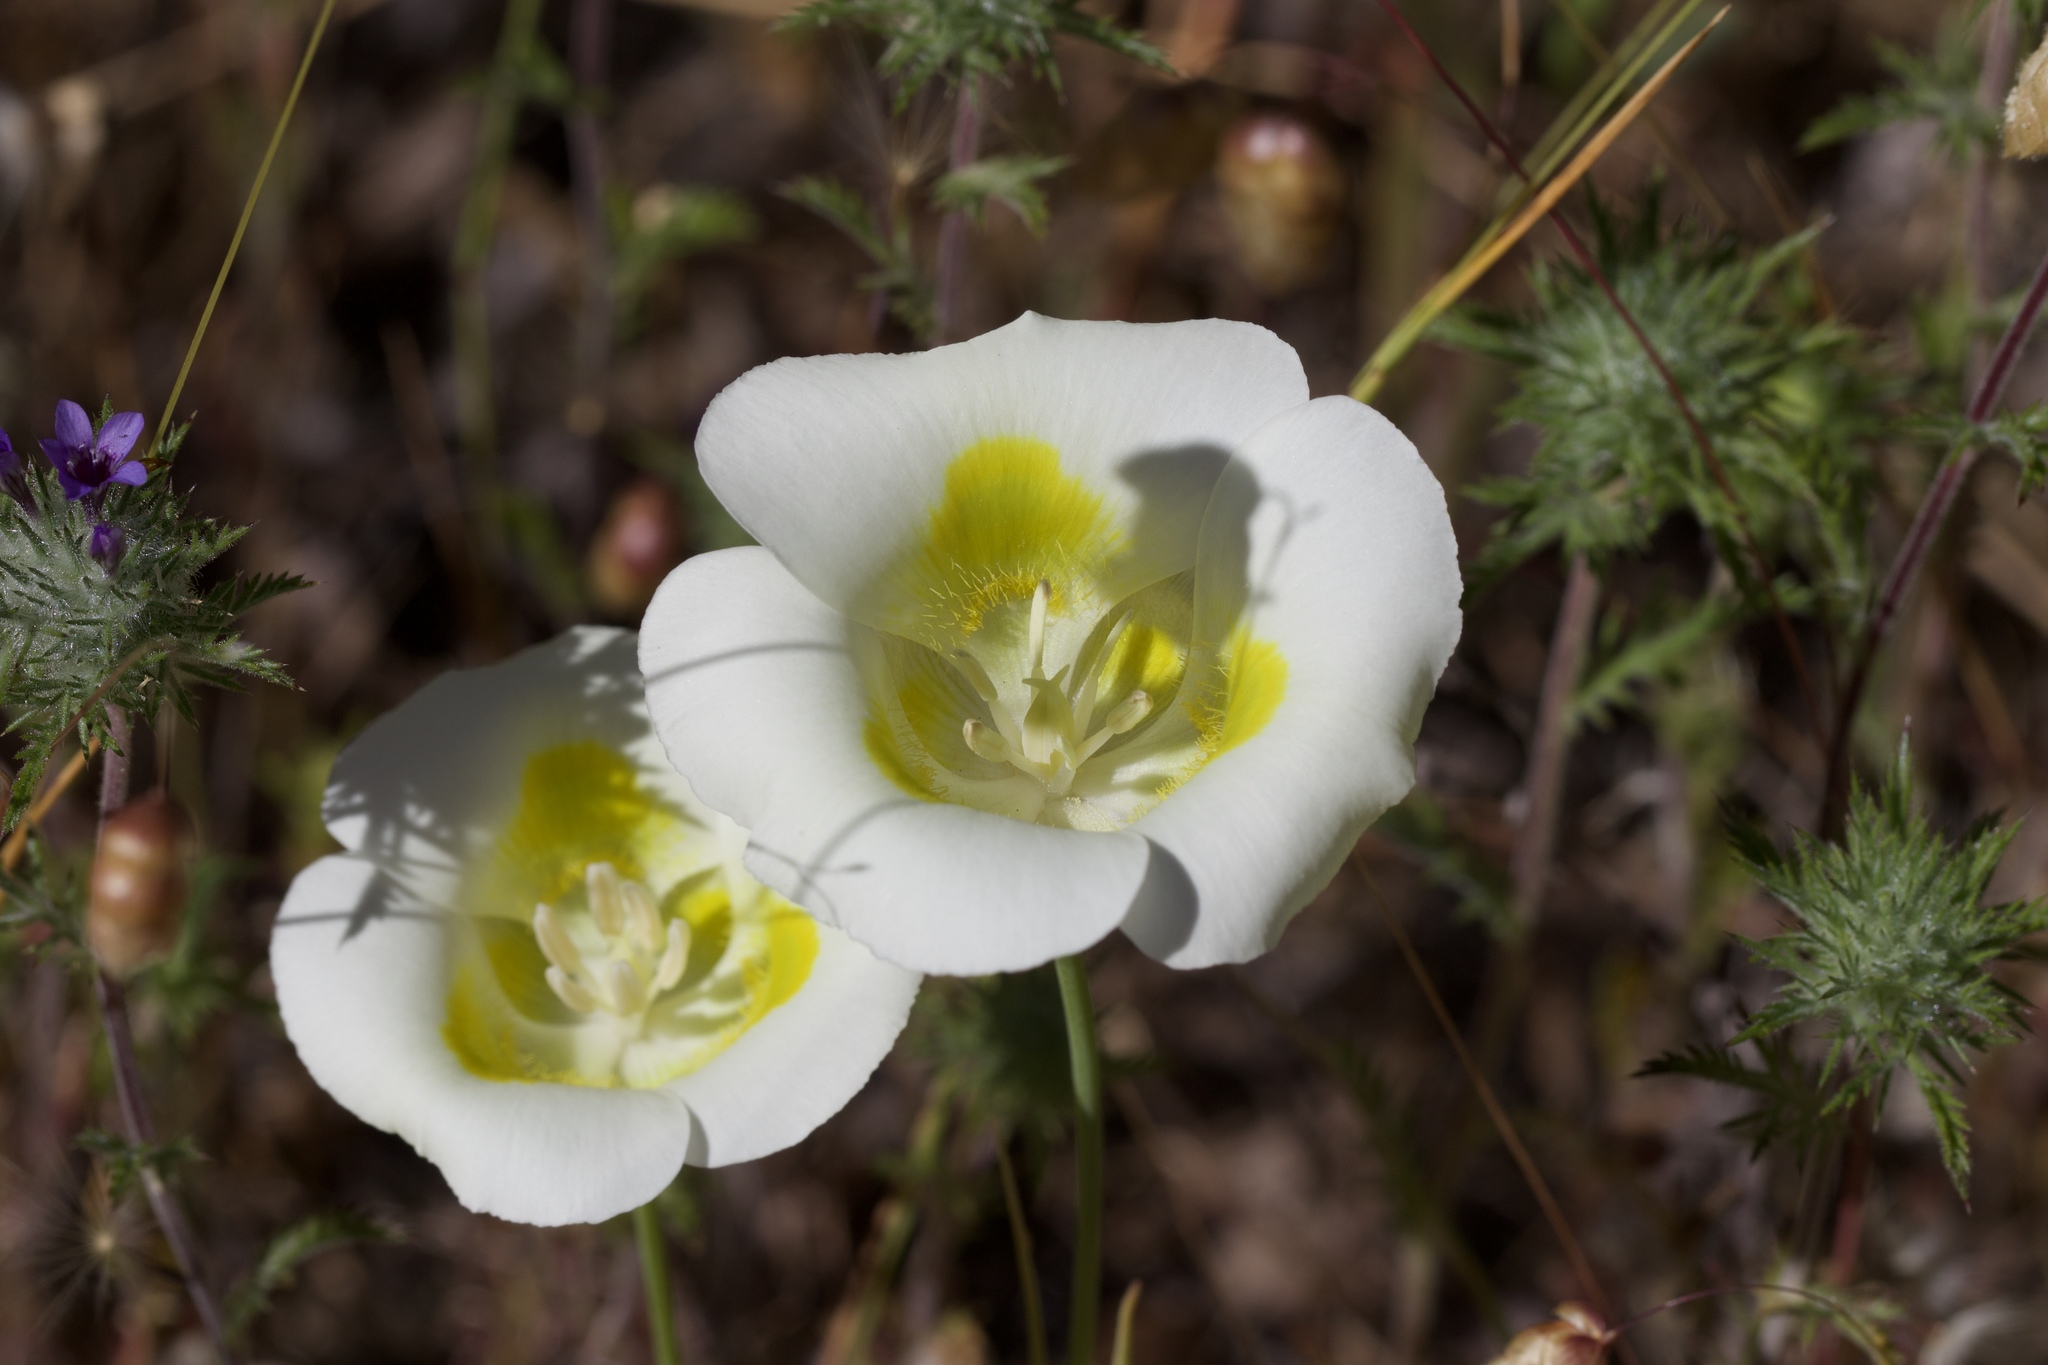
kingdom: Plantae
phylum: Tracheophyta
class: Liliopsida
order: Liliales
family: Liliaceae
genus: Calochortus
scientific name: Calochortus superbus
